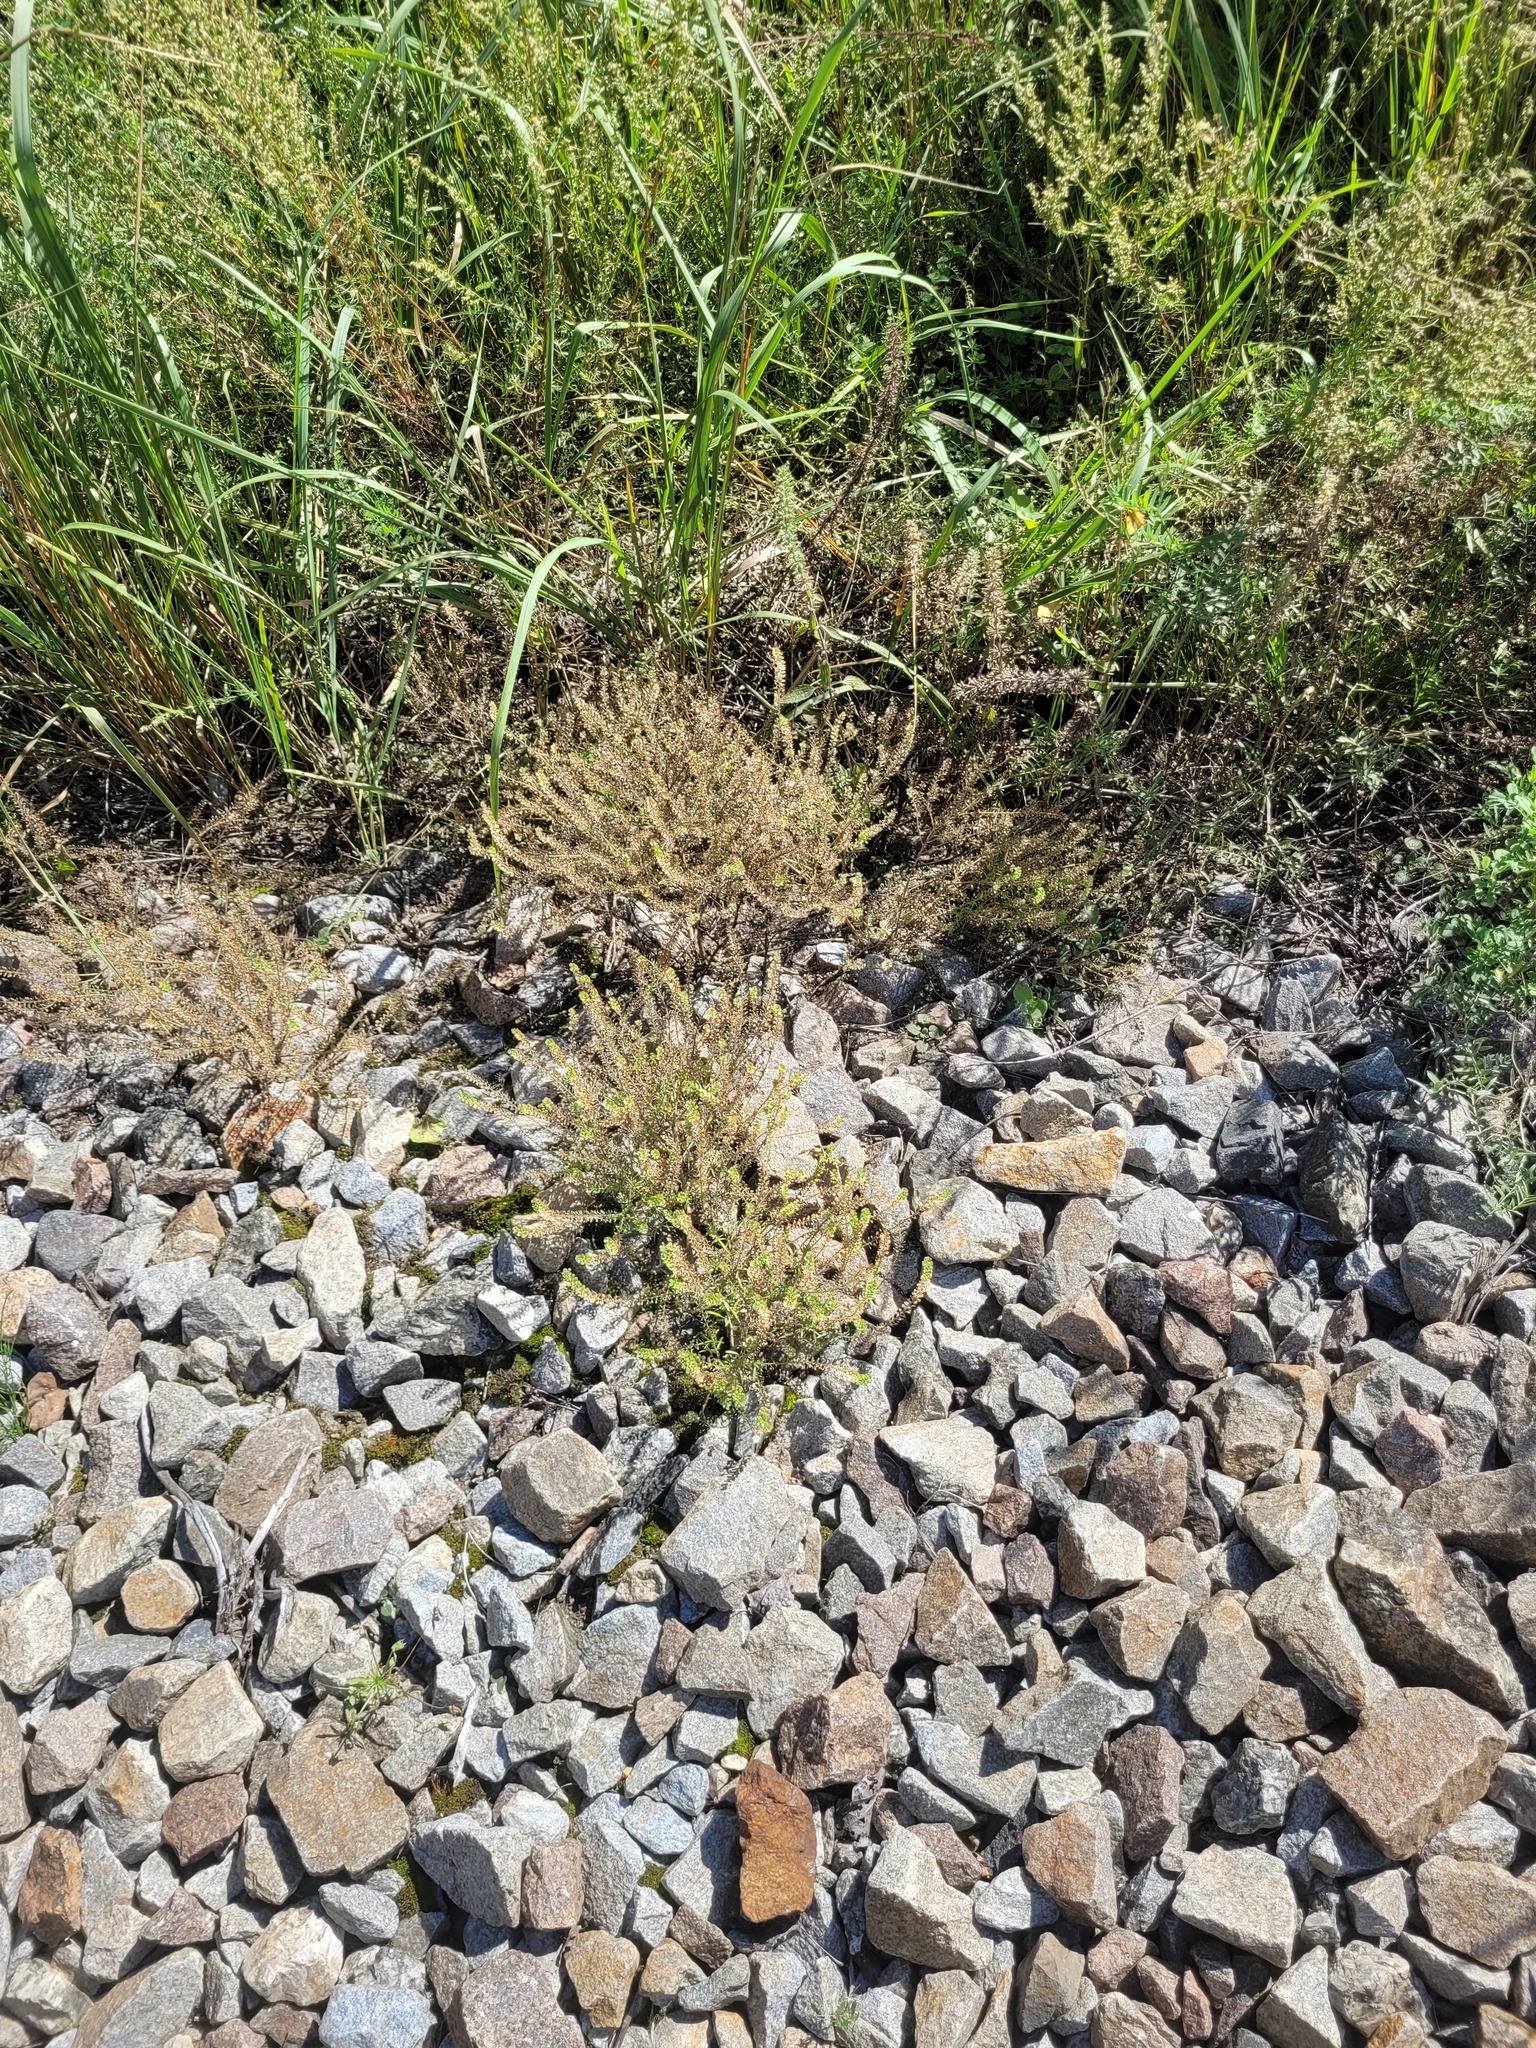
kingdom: Plantae
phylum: Tracheophyta
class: Magnoliopsida
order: Brassicales
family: Brassicaceae
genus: Lepidium
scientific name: Lepidium densiflorum
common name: Miner's pepperwort
